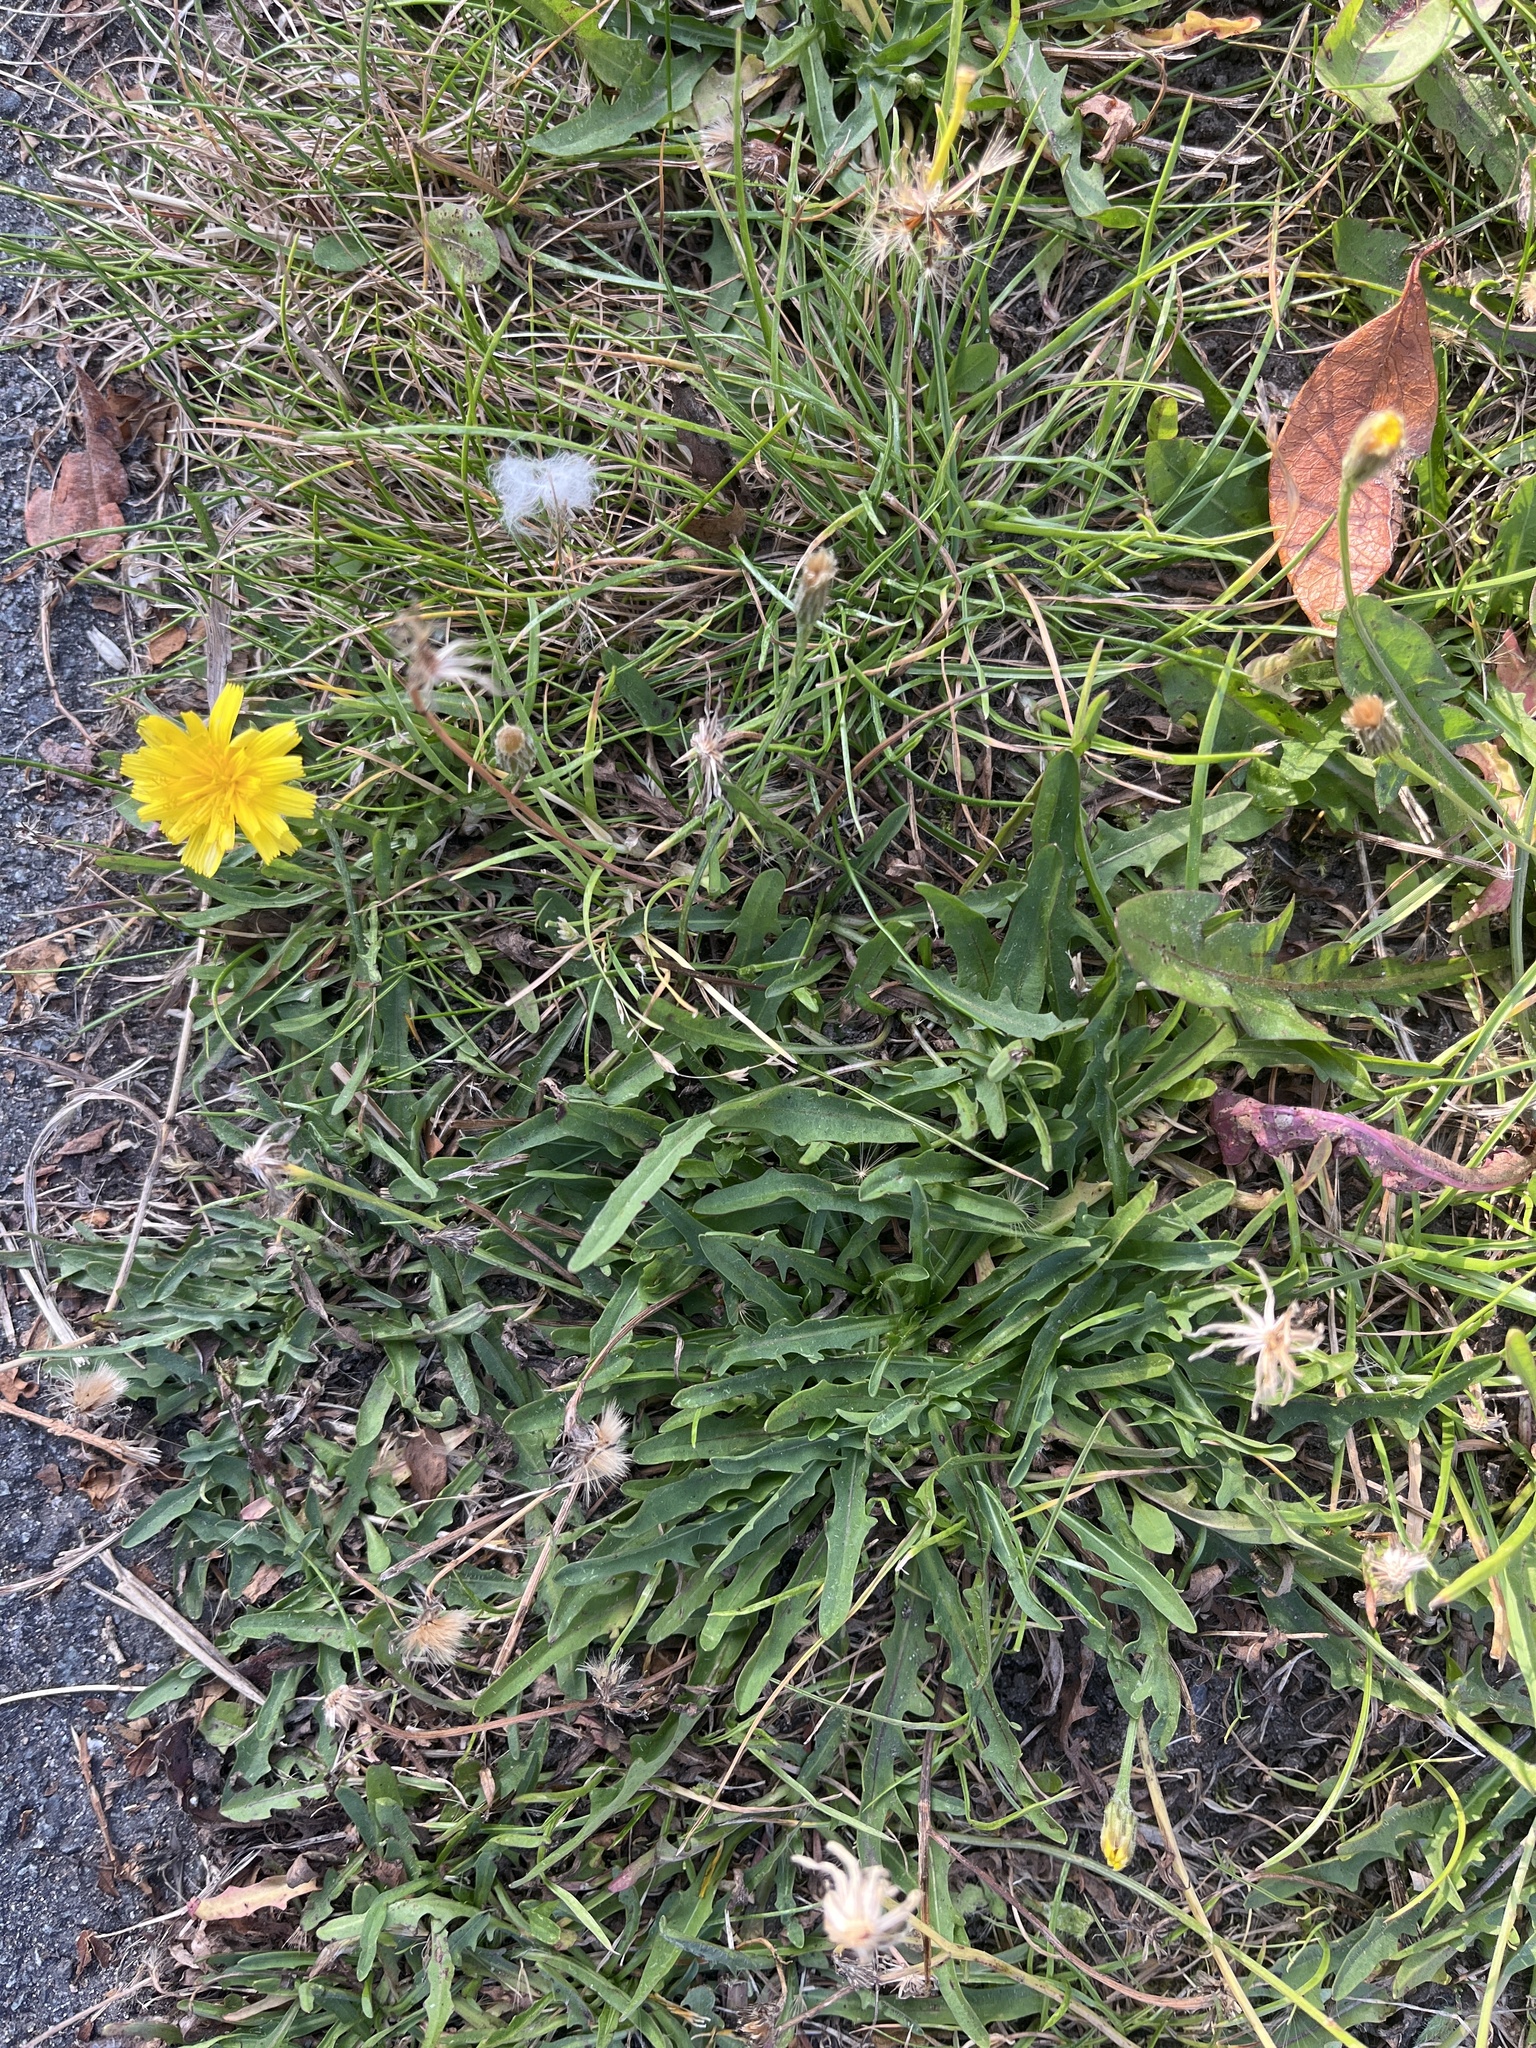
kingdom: Plantae
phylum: Tracheophyta
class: Magnoliopsida
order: Asterales
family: Asteraceae
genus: Scorzoneroides
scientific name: Scorzoneroides autumnalis
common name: Autumn hawkbit
